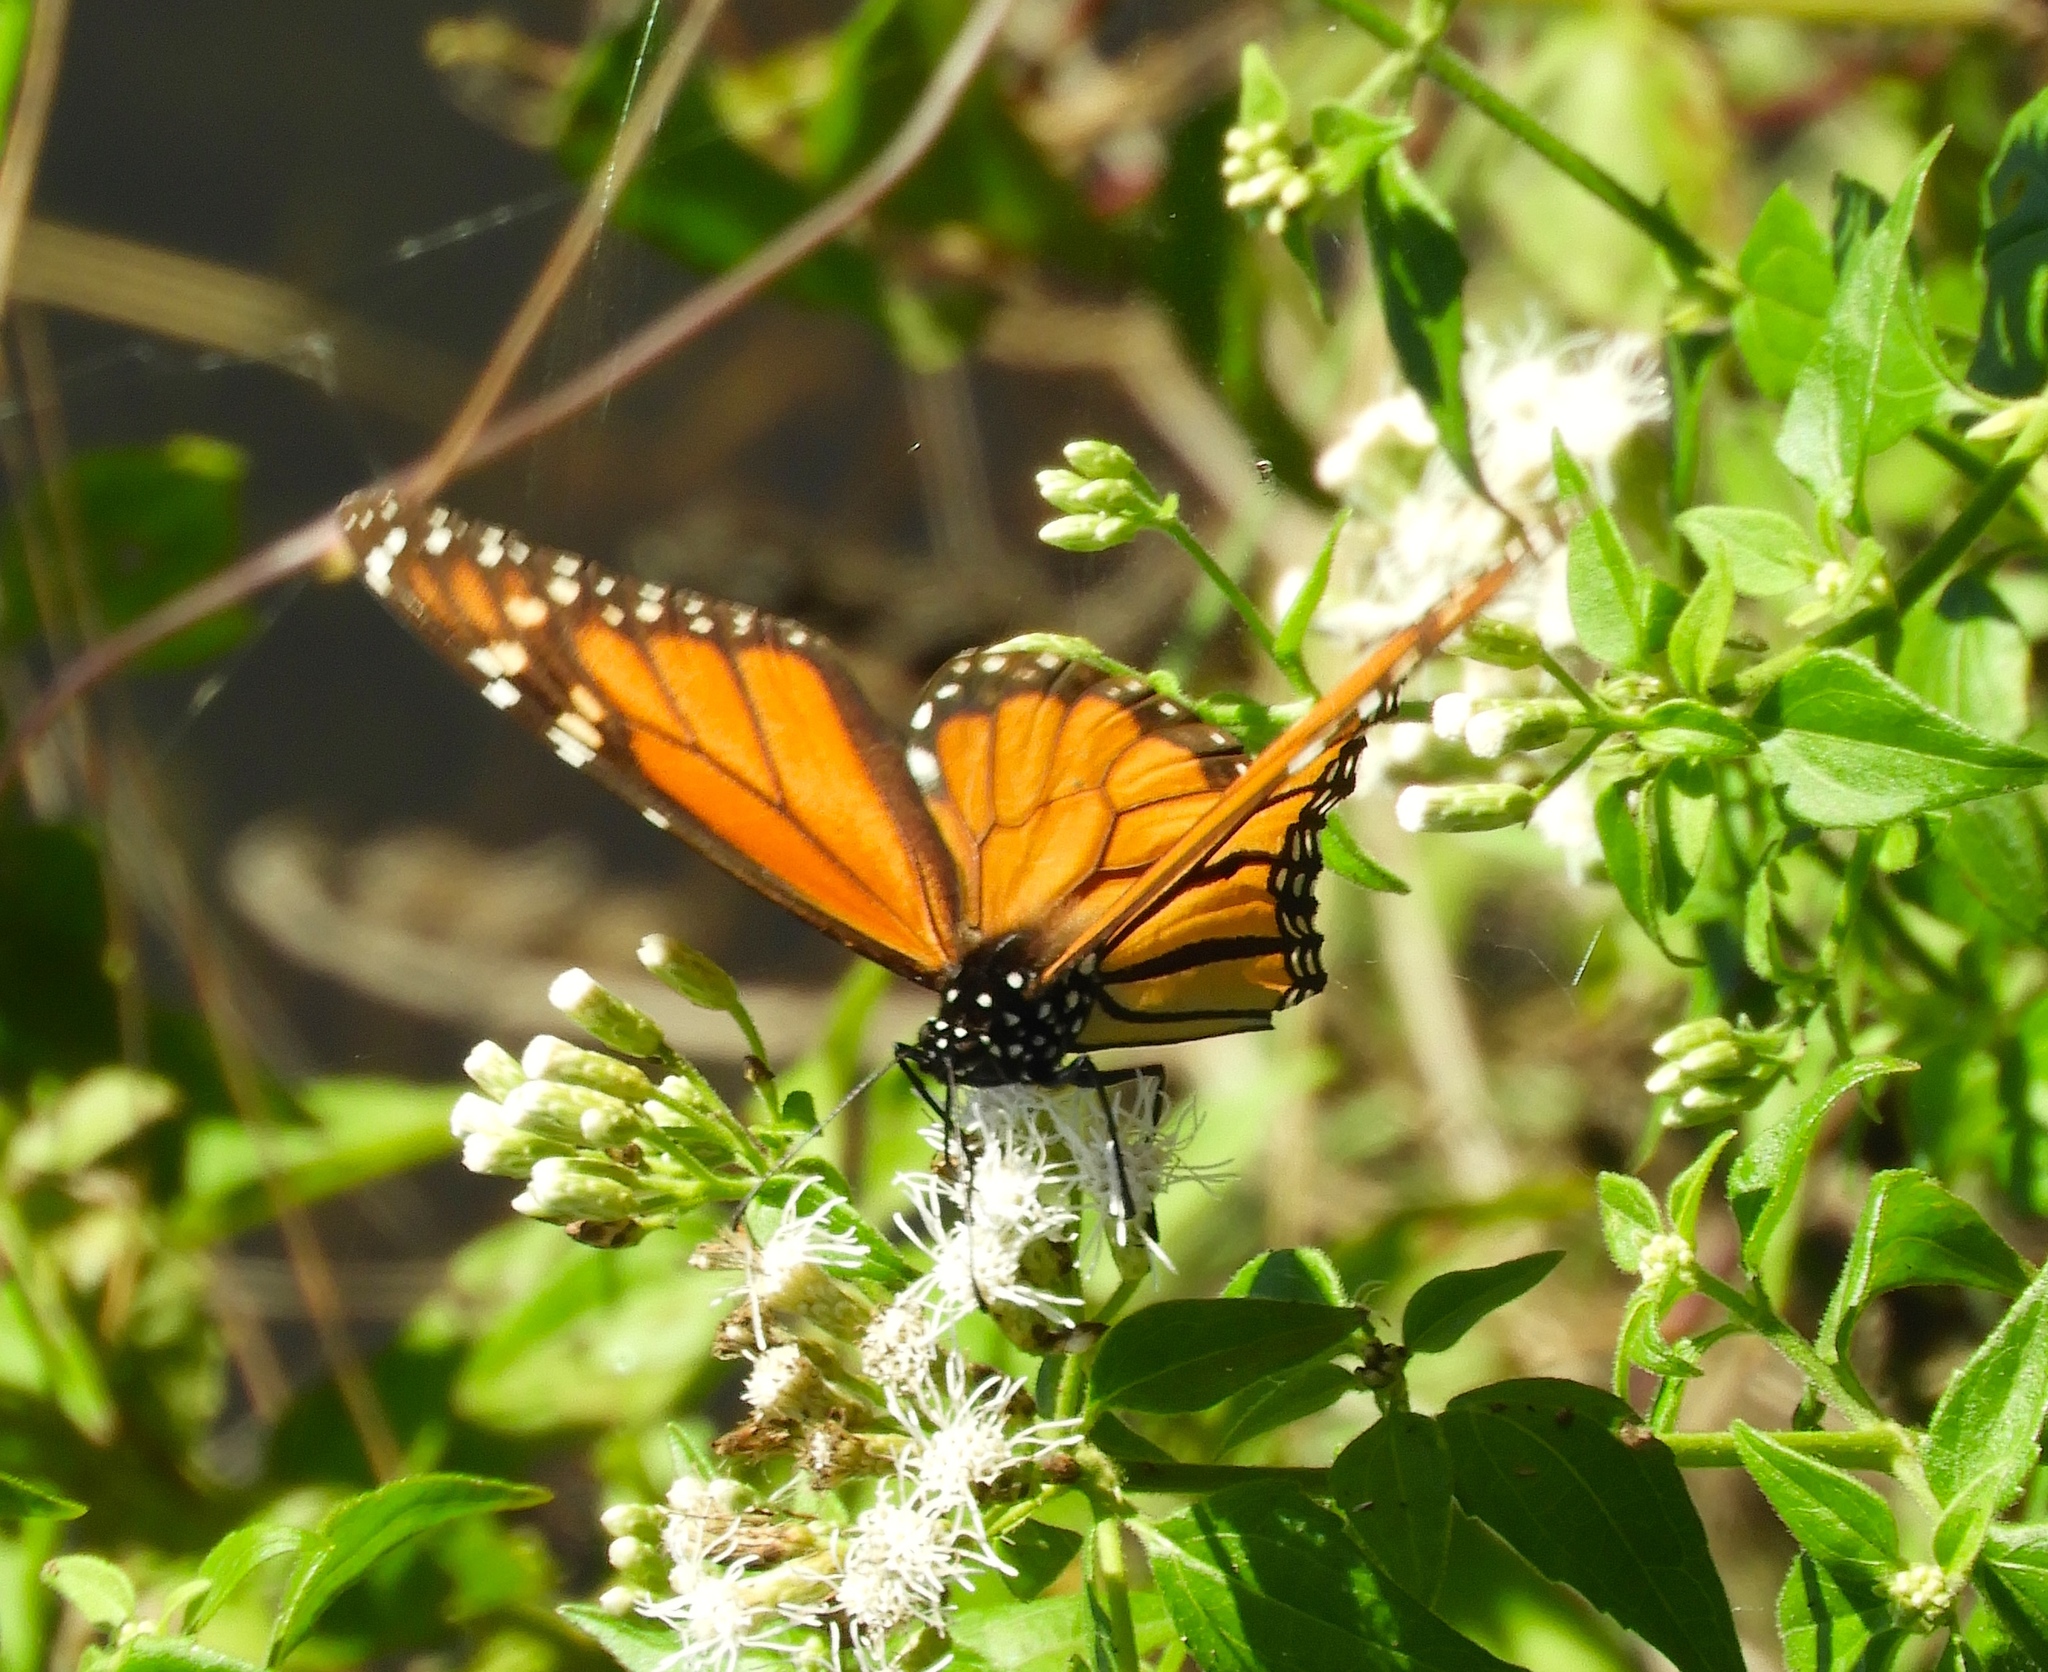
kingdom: Animalia
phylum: Arthropoda
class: Insecta
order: Lepidoptera
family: Nymphalidae
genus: Danaus
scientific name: Danaus plexippus
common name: Monarch
